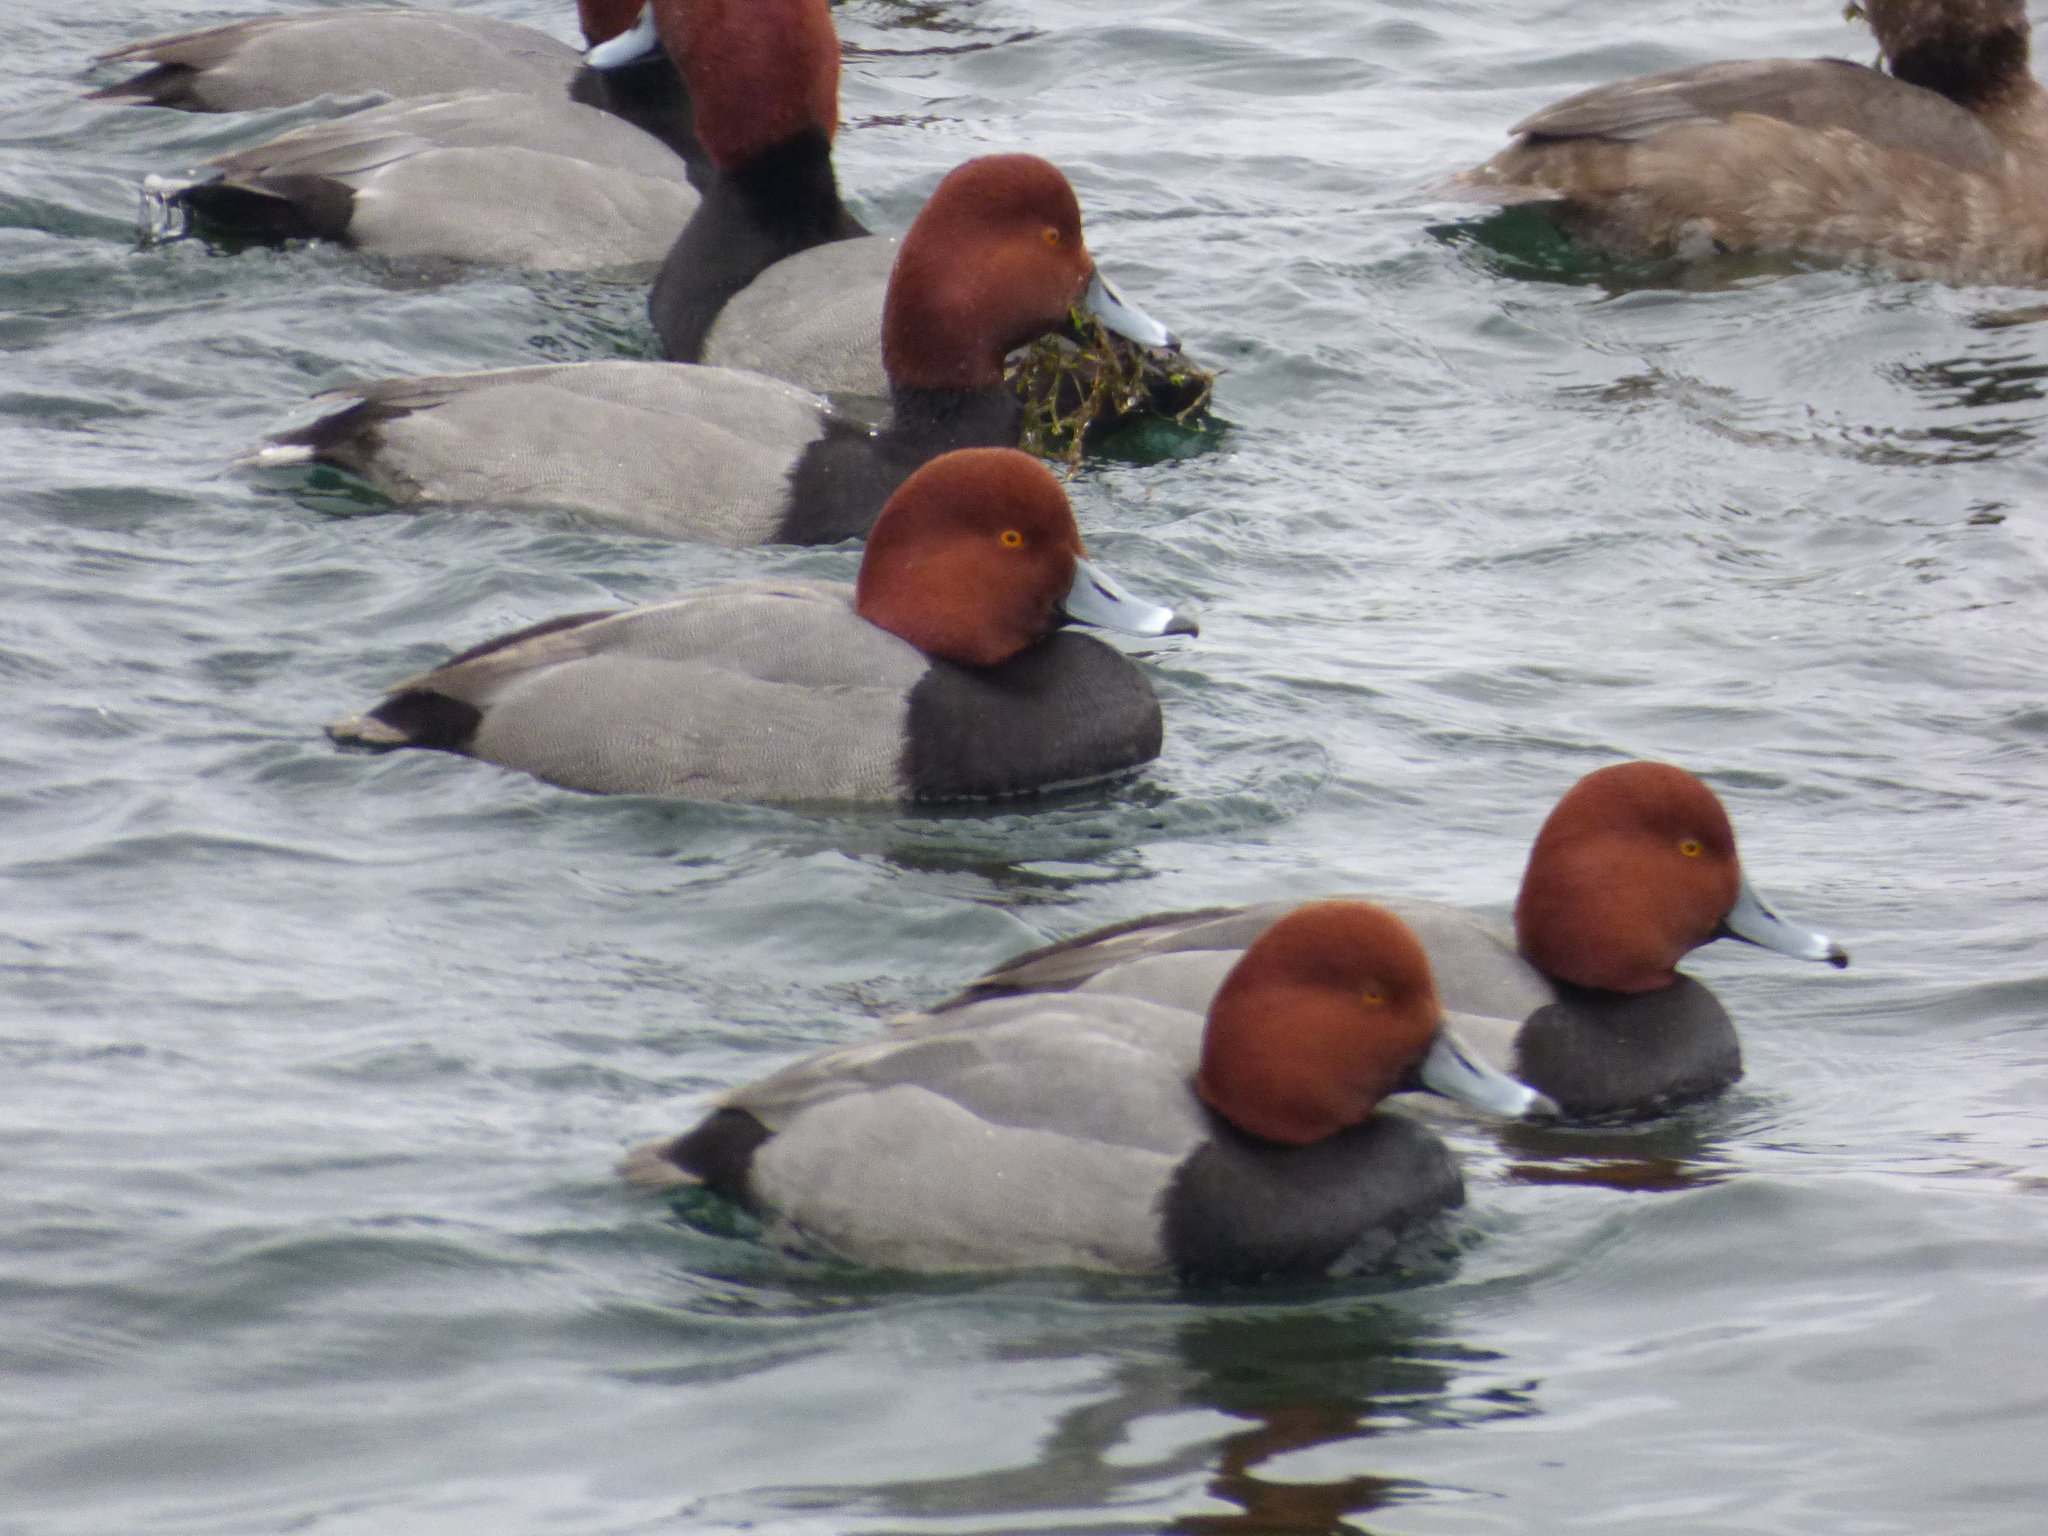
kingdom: Animalia
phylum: Chordata
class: Aves
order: Anseriformes
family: Anatidae
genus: Aythya
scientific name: Aythya americana
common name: Redhead
